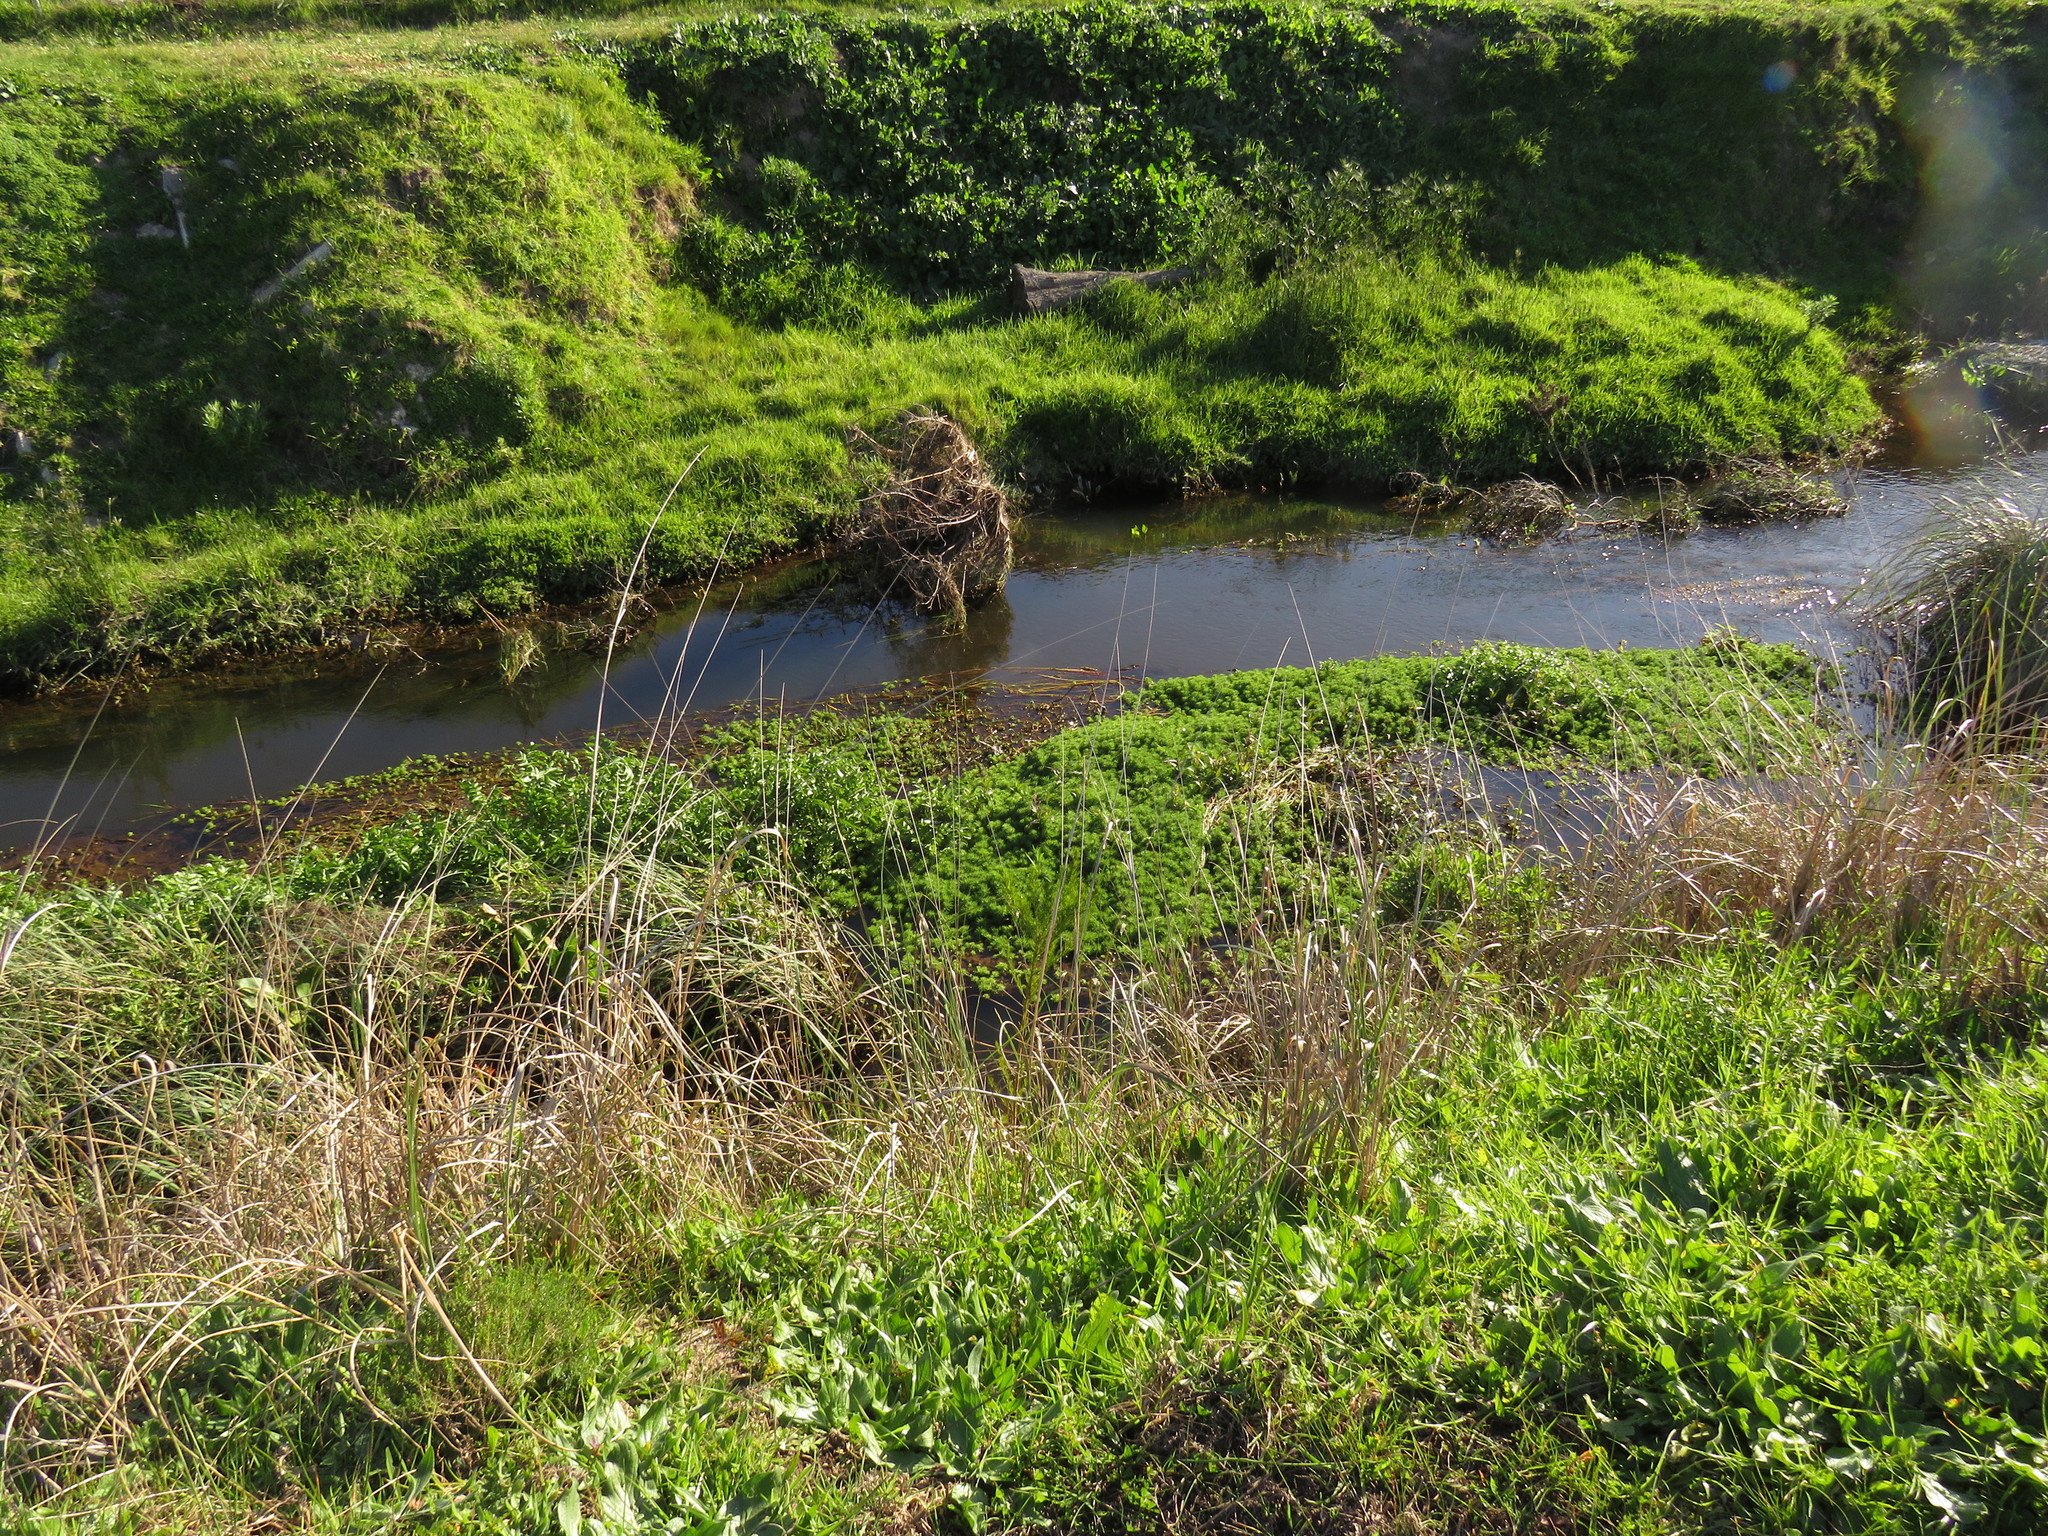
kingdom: Plantae
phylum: Tracheophyta
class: Magnoliopsida
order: Fabales
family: Fabaceae
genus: Psoralea
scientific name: Psoralea pinnata
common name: African scurfpea
